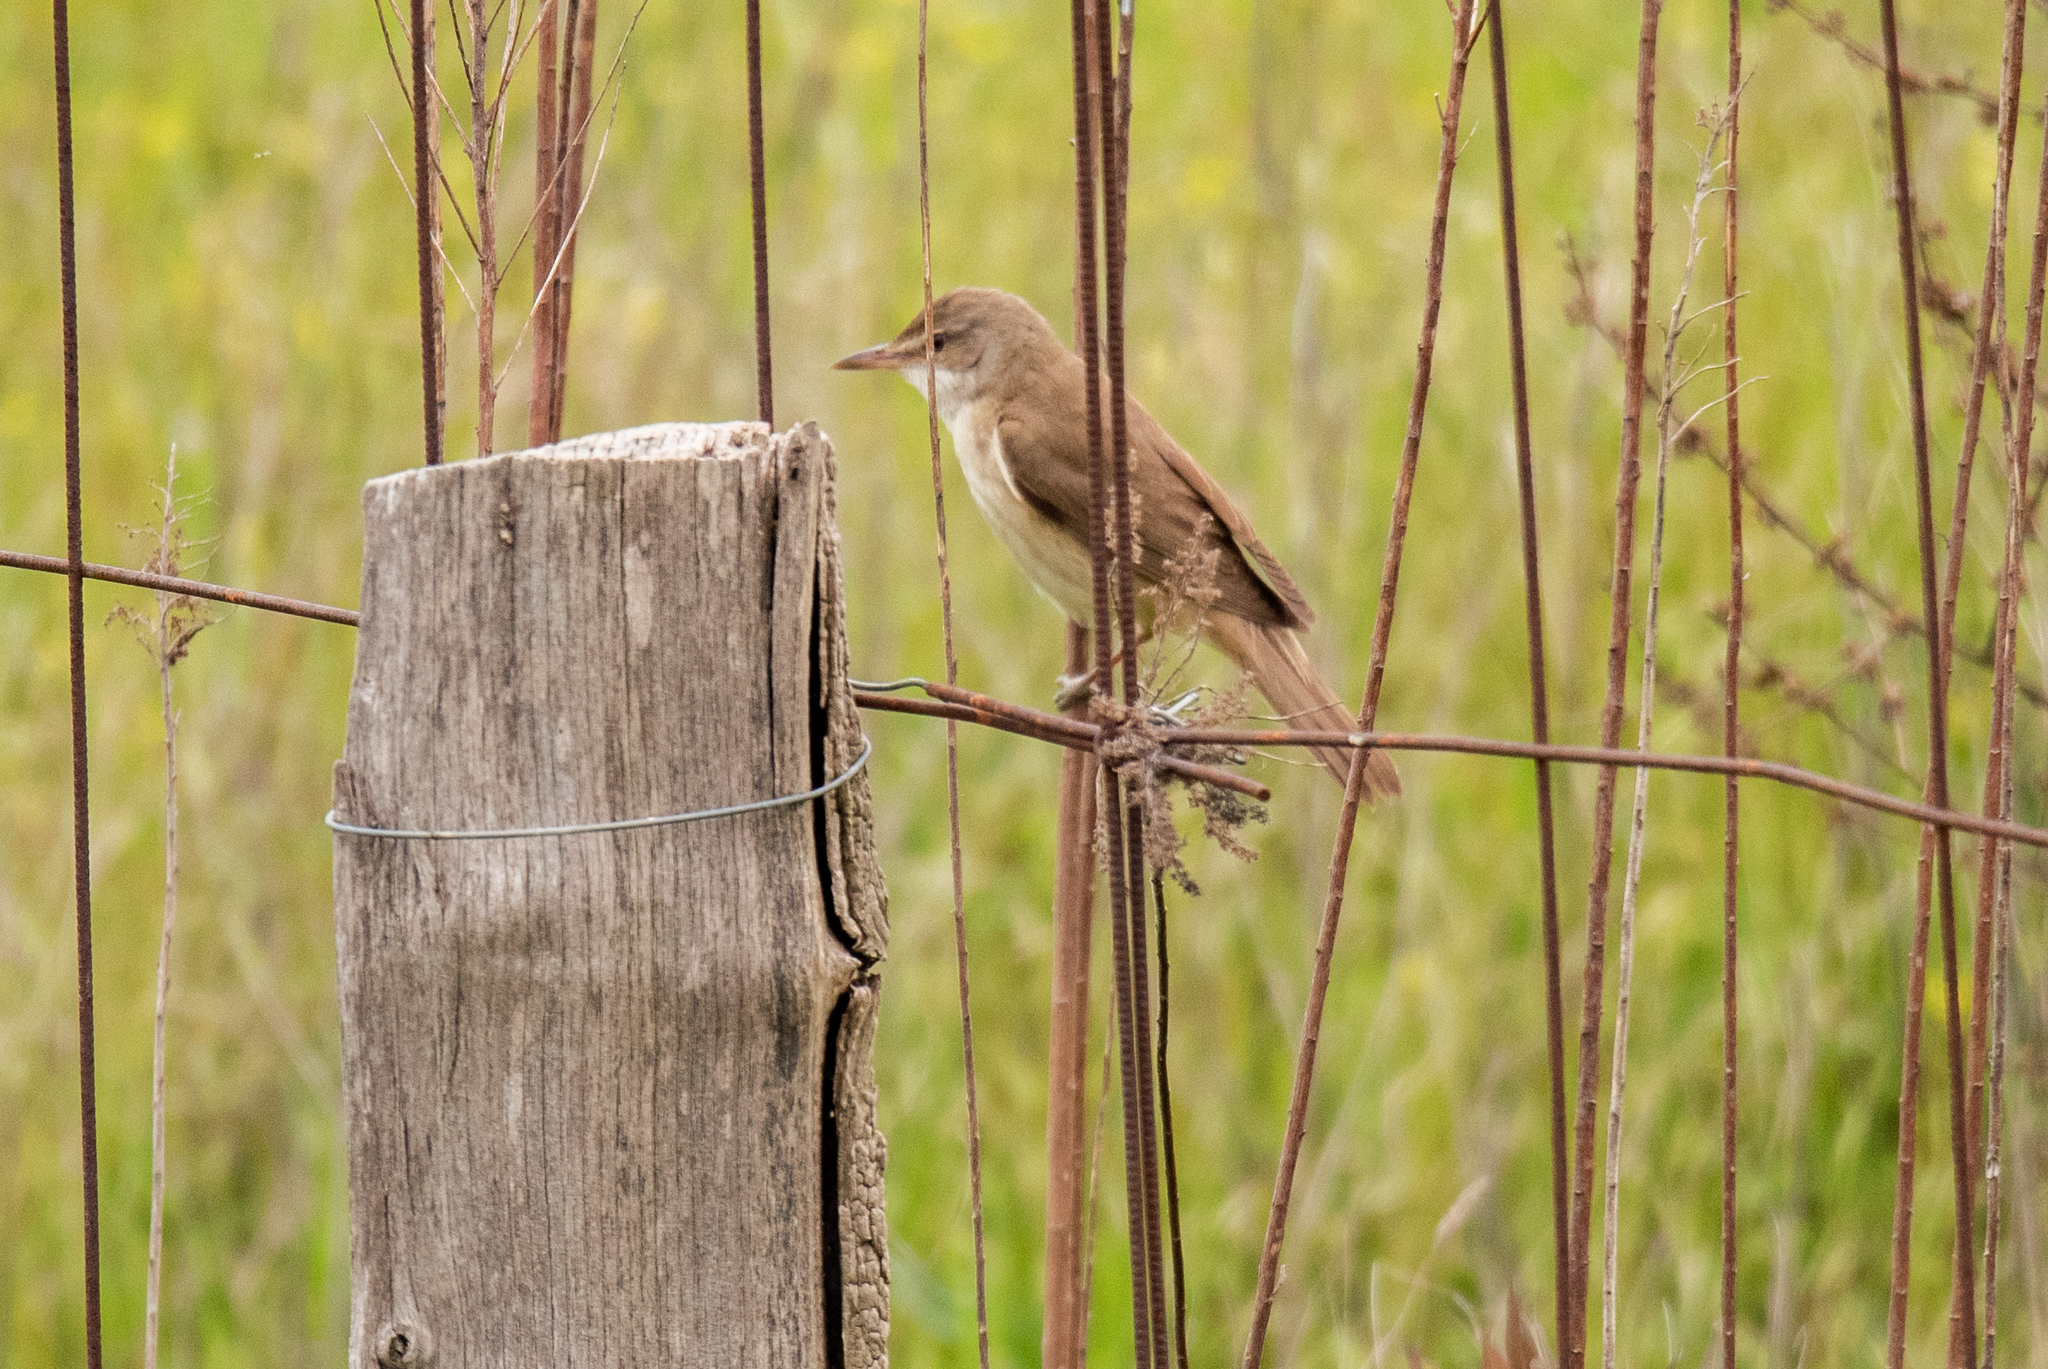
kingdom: Animalia
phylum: Chordata
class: Aves
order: Passeriformes
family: Acrocephalidae
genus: Acrocephalus
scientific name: Acrocephalus arundinaceus
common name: Great reed warbler
